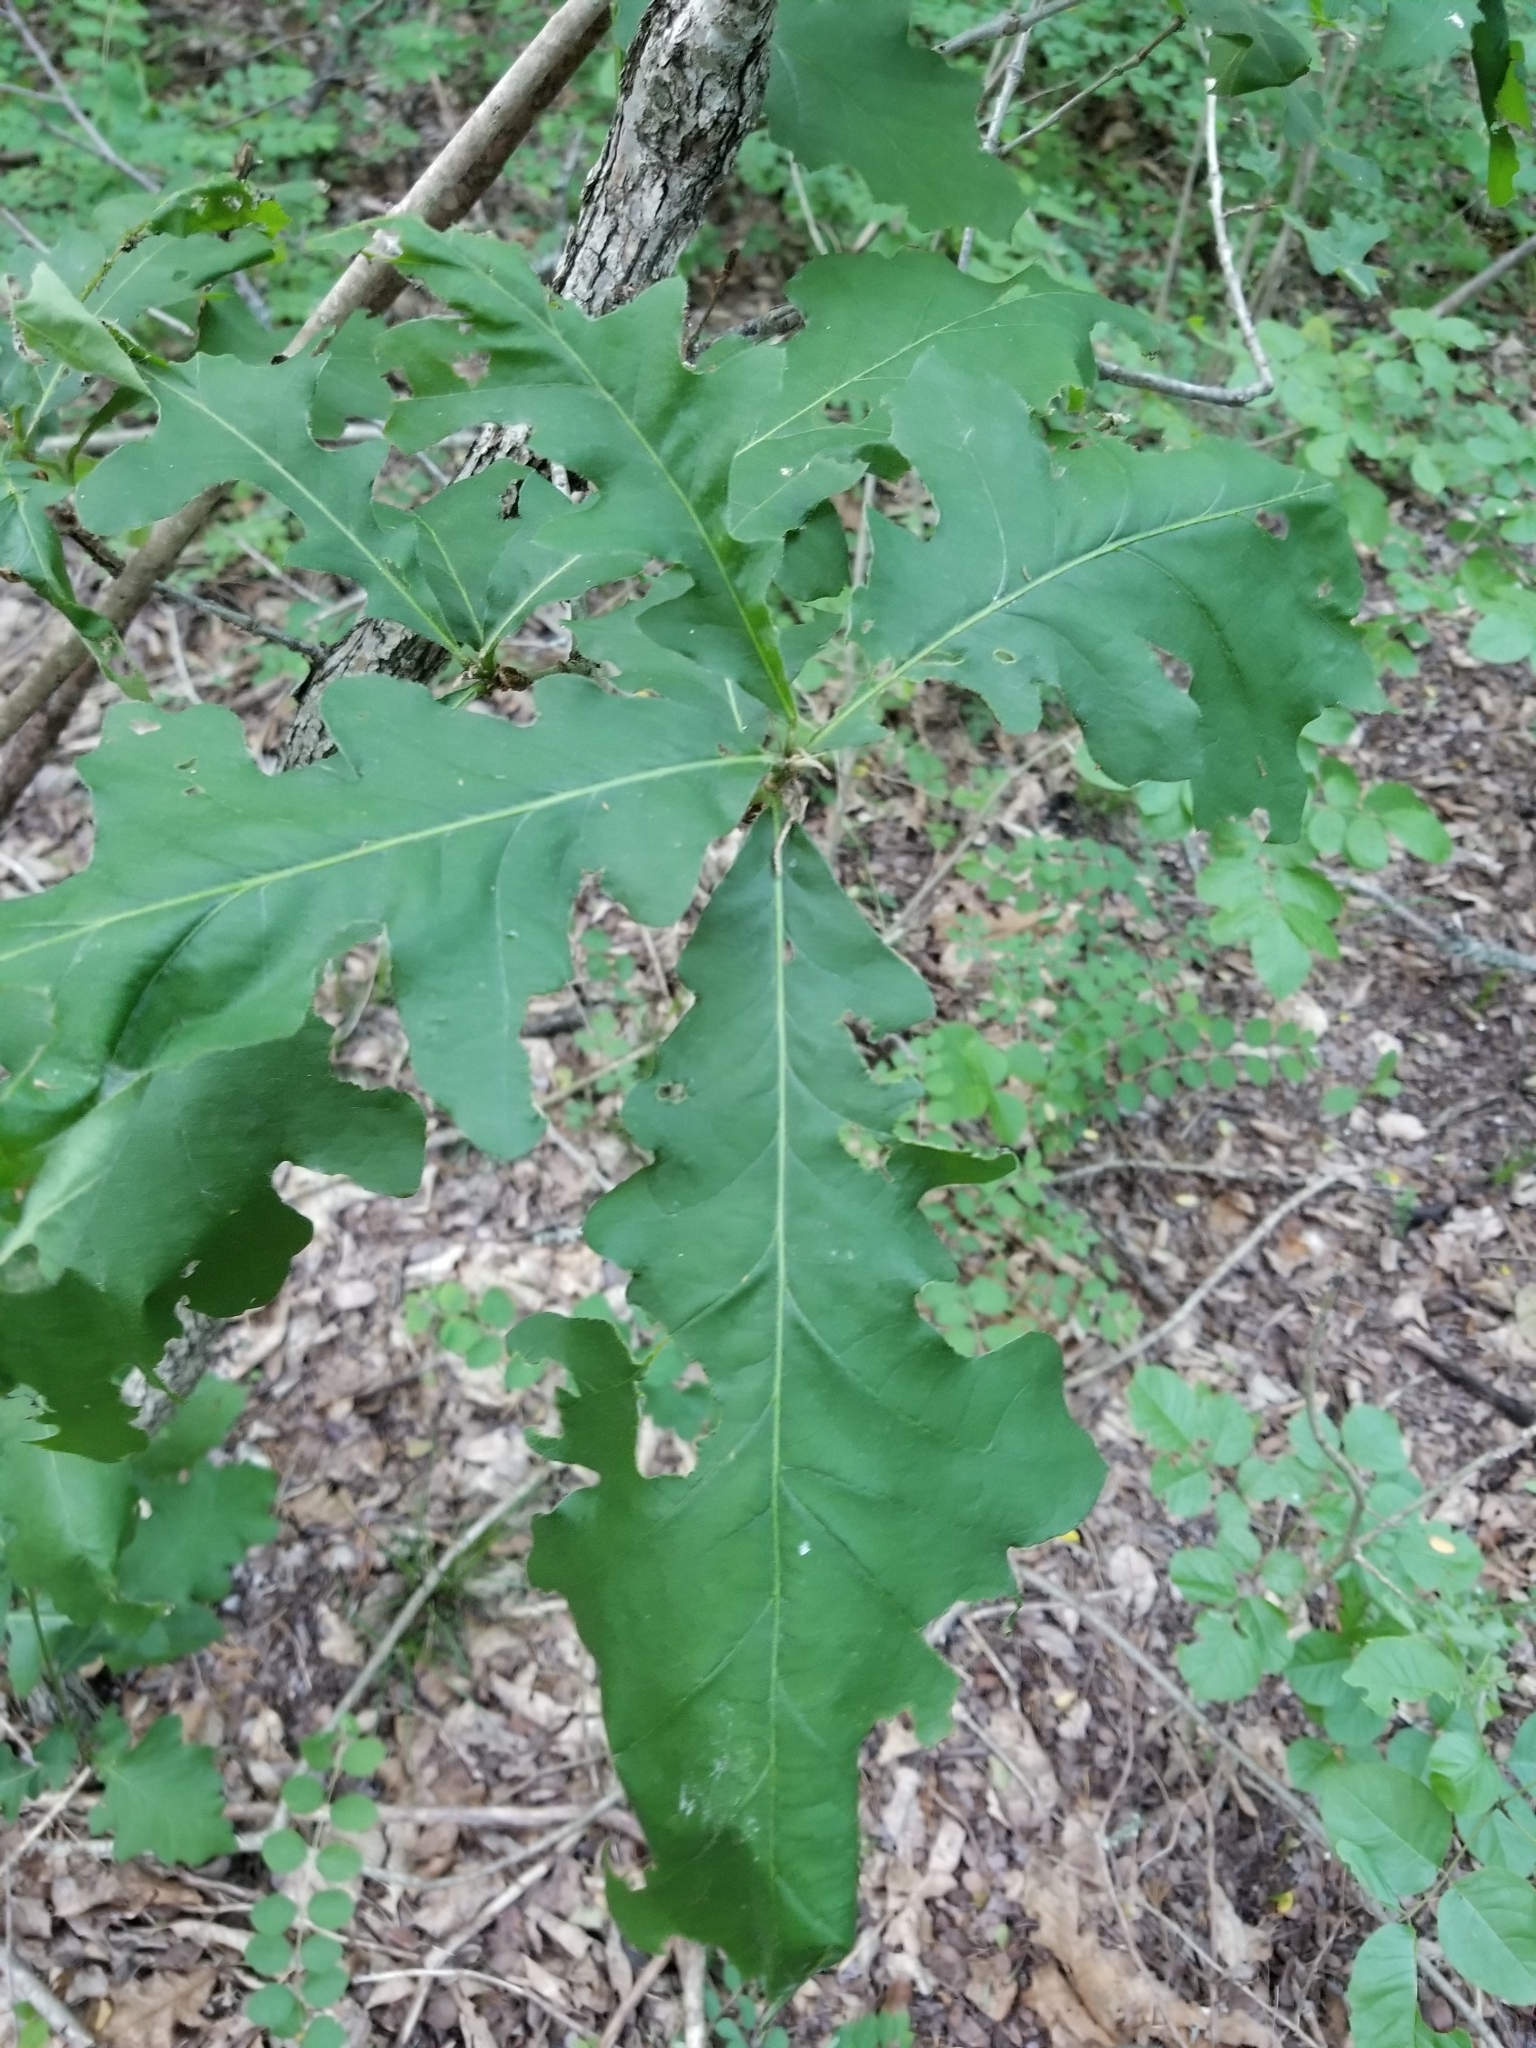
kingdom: Plantae
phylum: Tracheophyta
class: Magnoliopsida
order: Fagales
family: Fagaceae
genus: Quercus
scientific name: Quercus macrocarpa
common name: Bur oak
